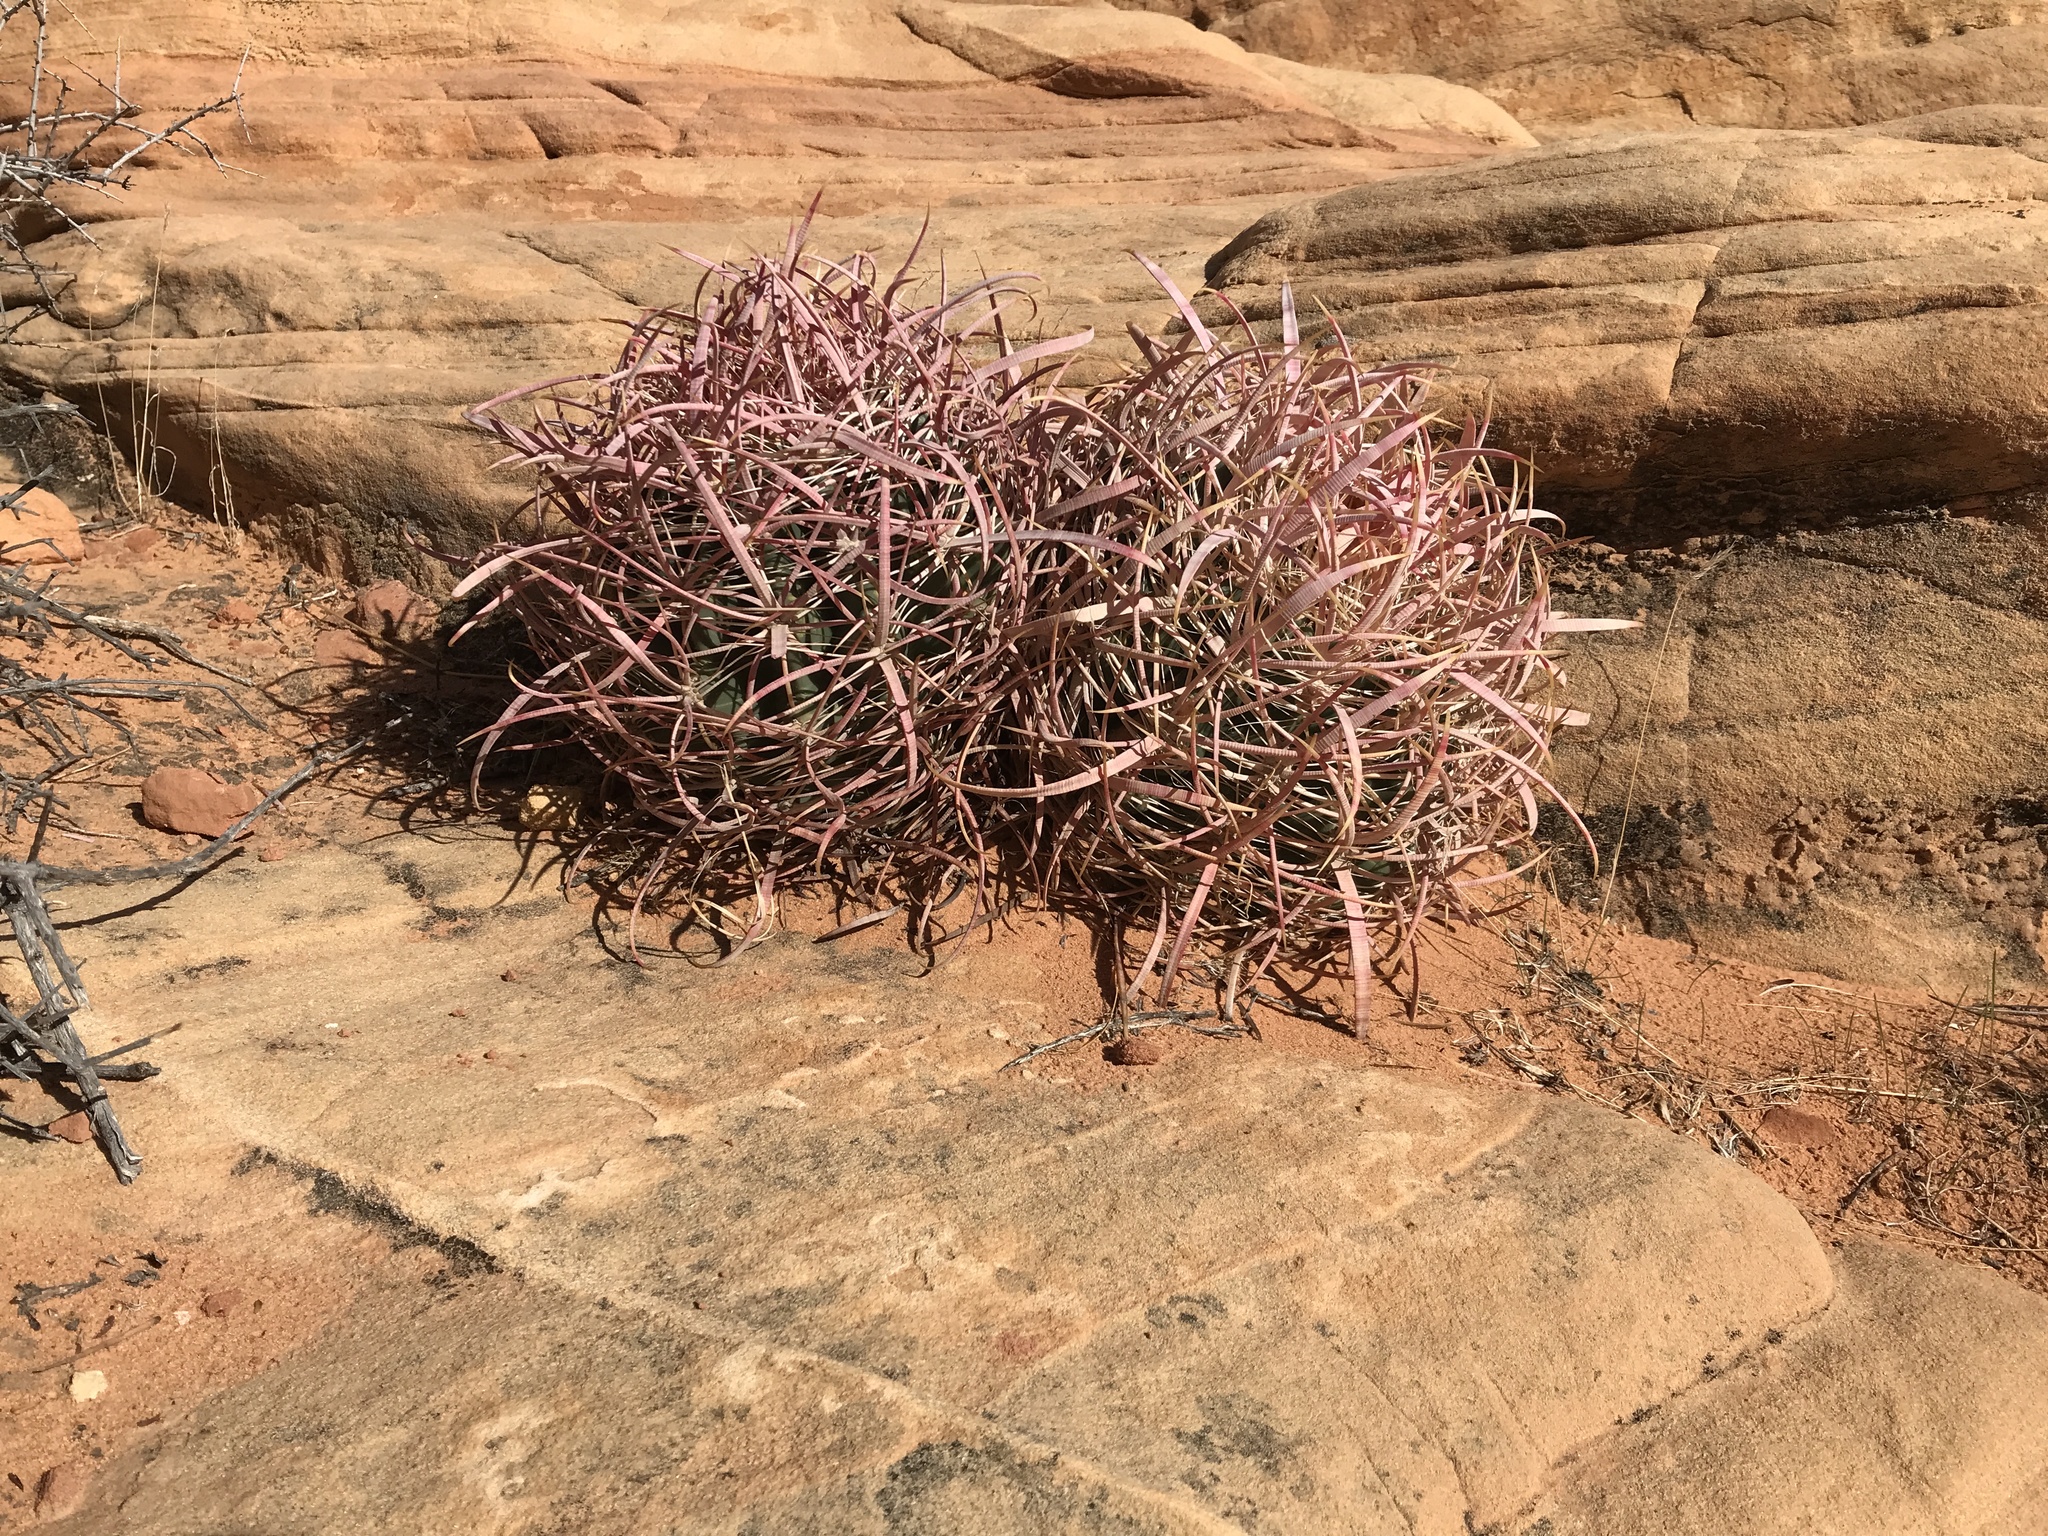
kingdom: Plantae
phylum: Tracheophyta
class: Magnoliopsida
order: Caryophyllales
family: Cactaceae
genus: Ferocactus
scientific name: Ferocactus cylindraceus
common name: California barrel cactus
